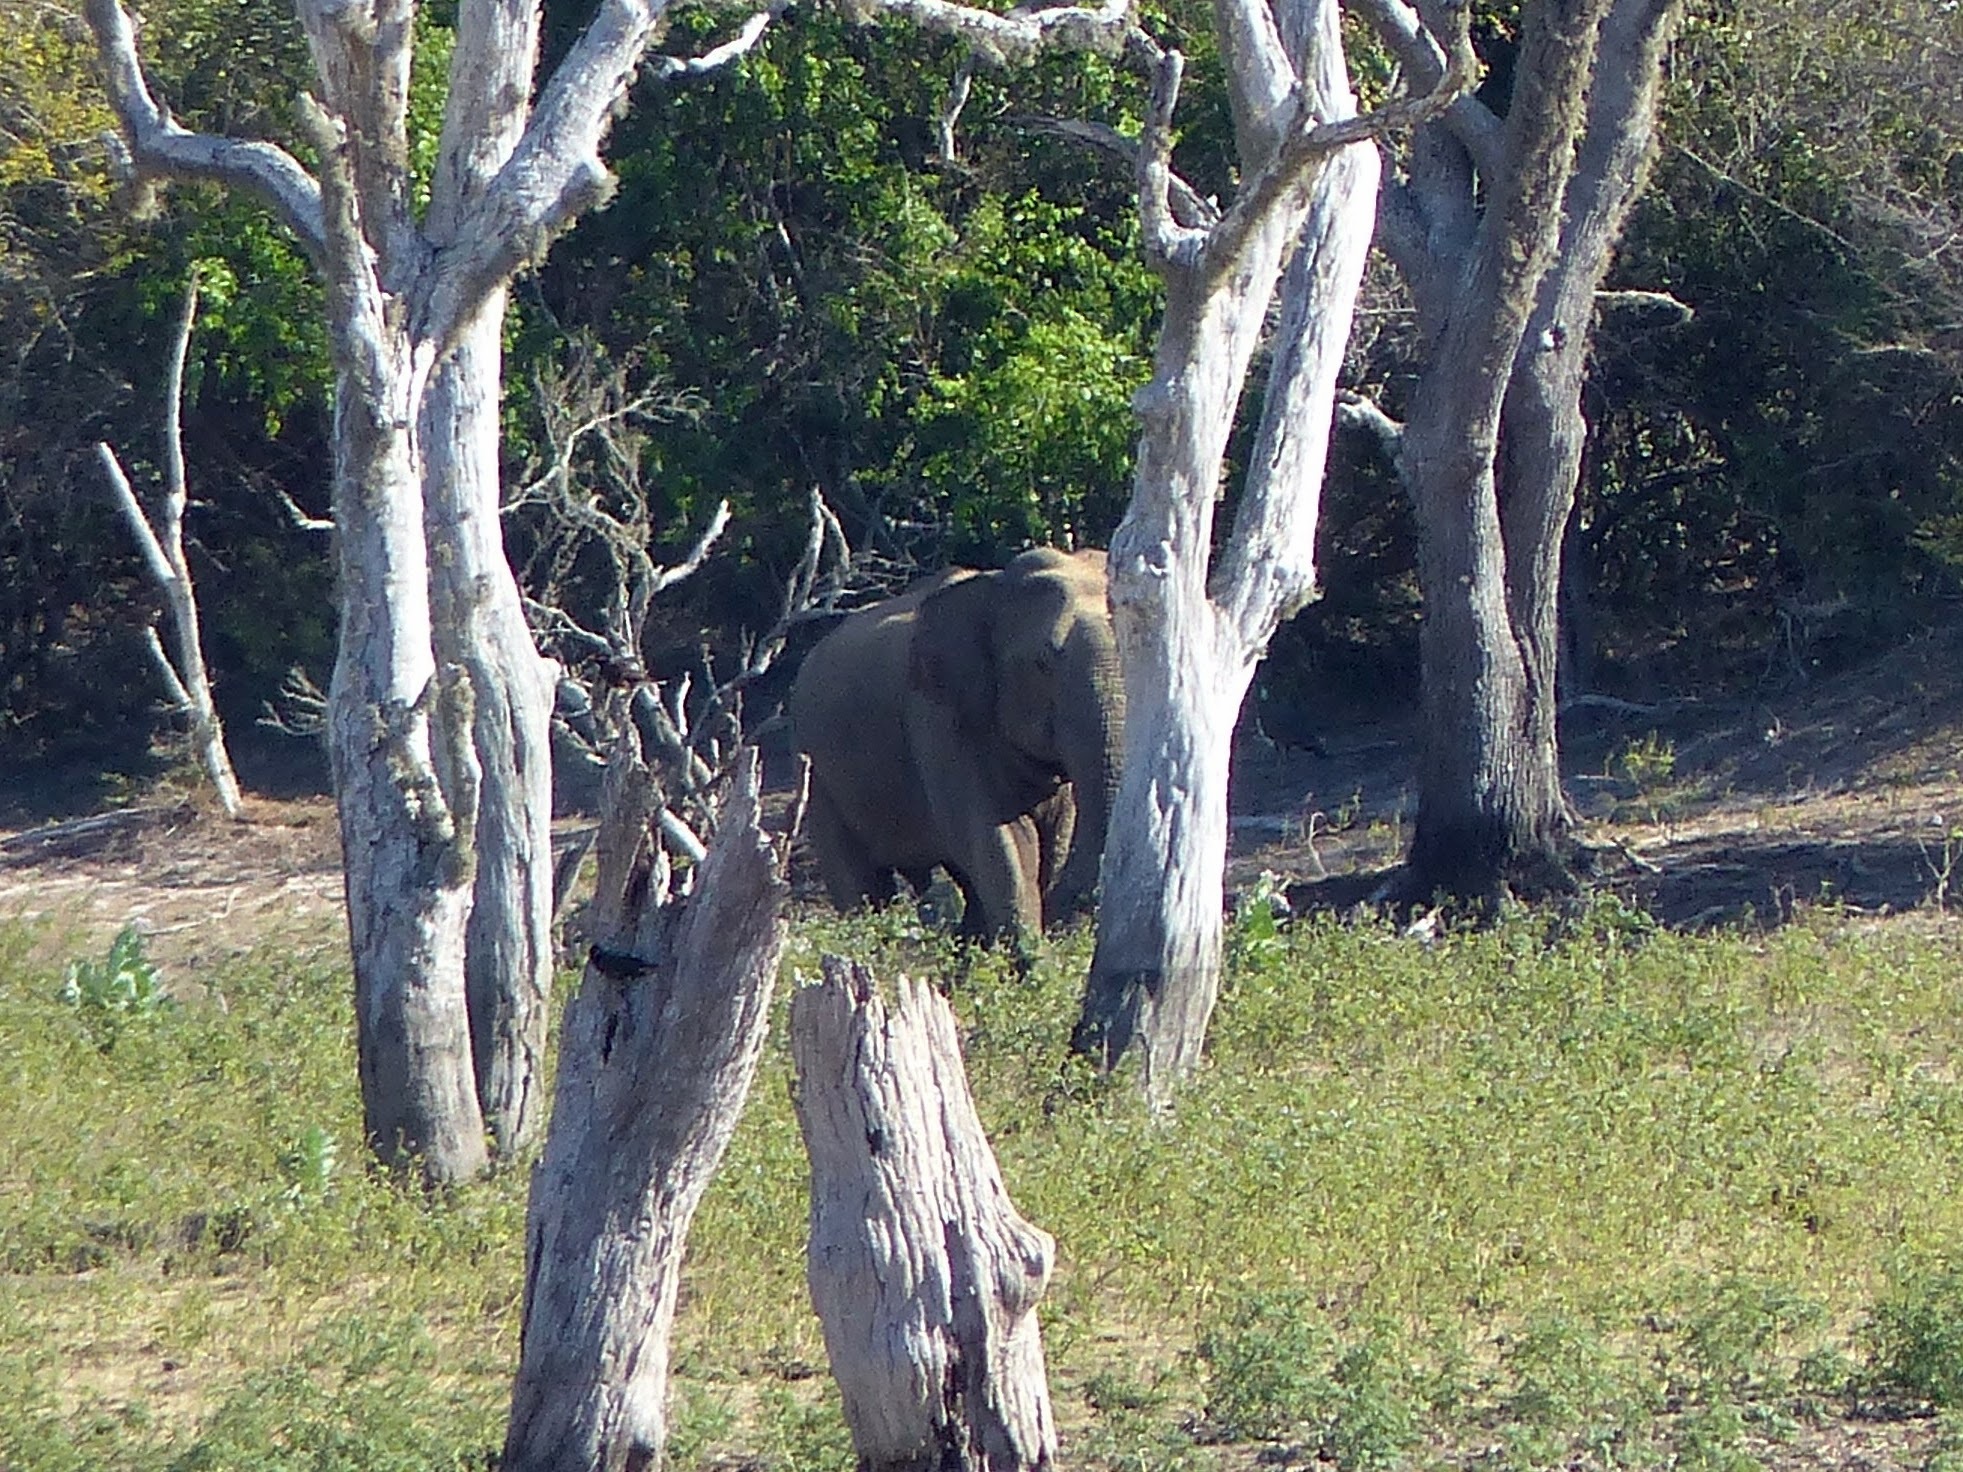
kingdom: Animalia
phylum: Chordata
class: Mammalia
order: Proboscidea
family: Elephantidae
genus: Elephas
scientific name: Elephas maximus
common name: Asian elephant
